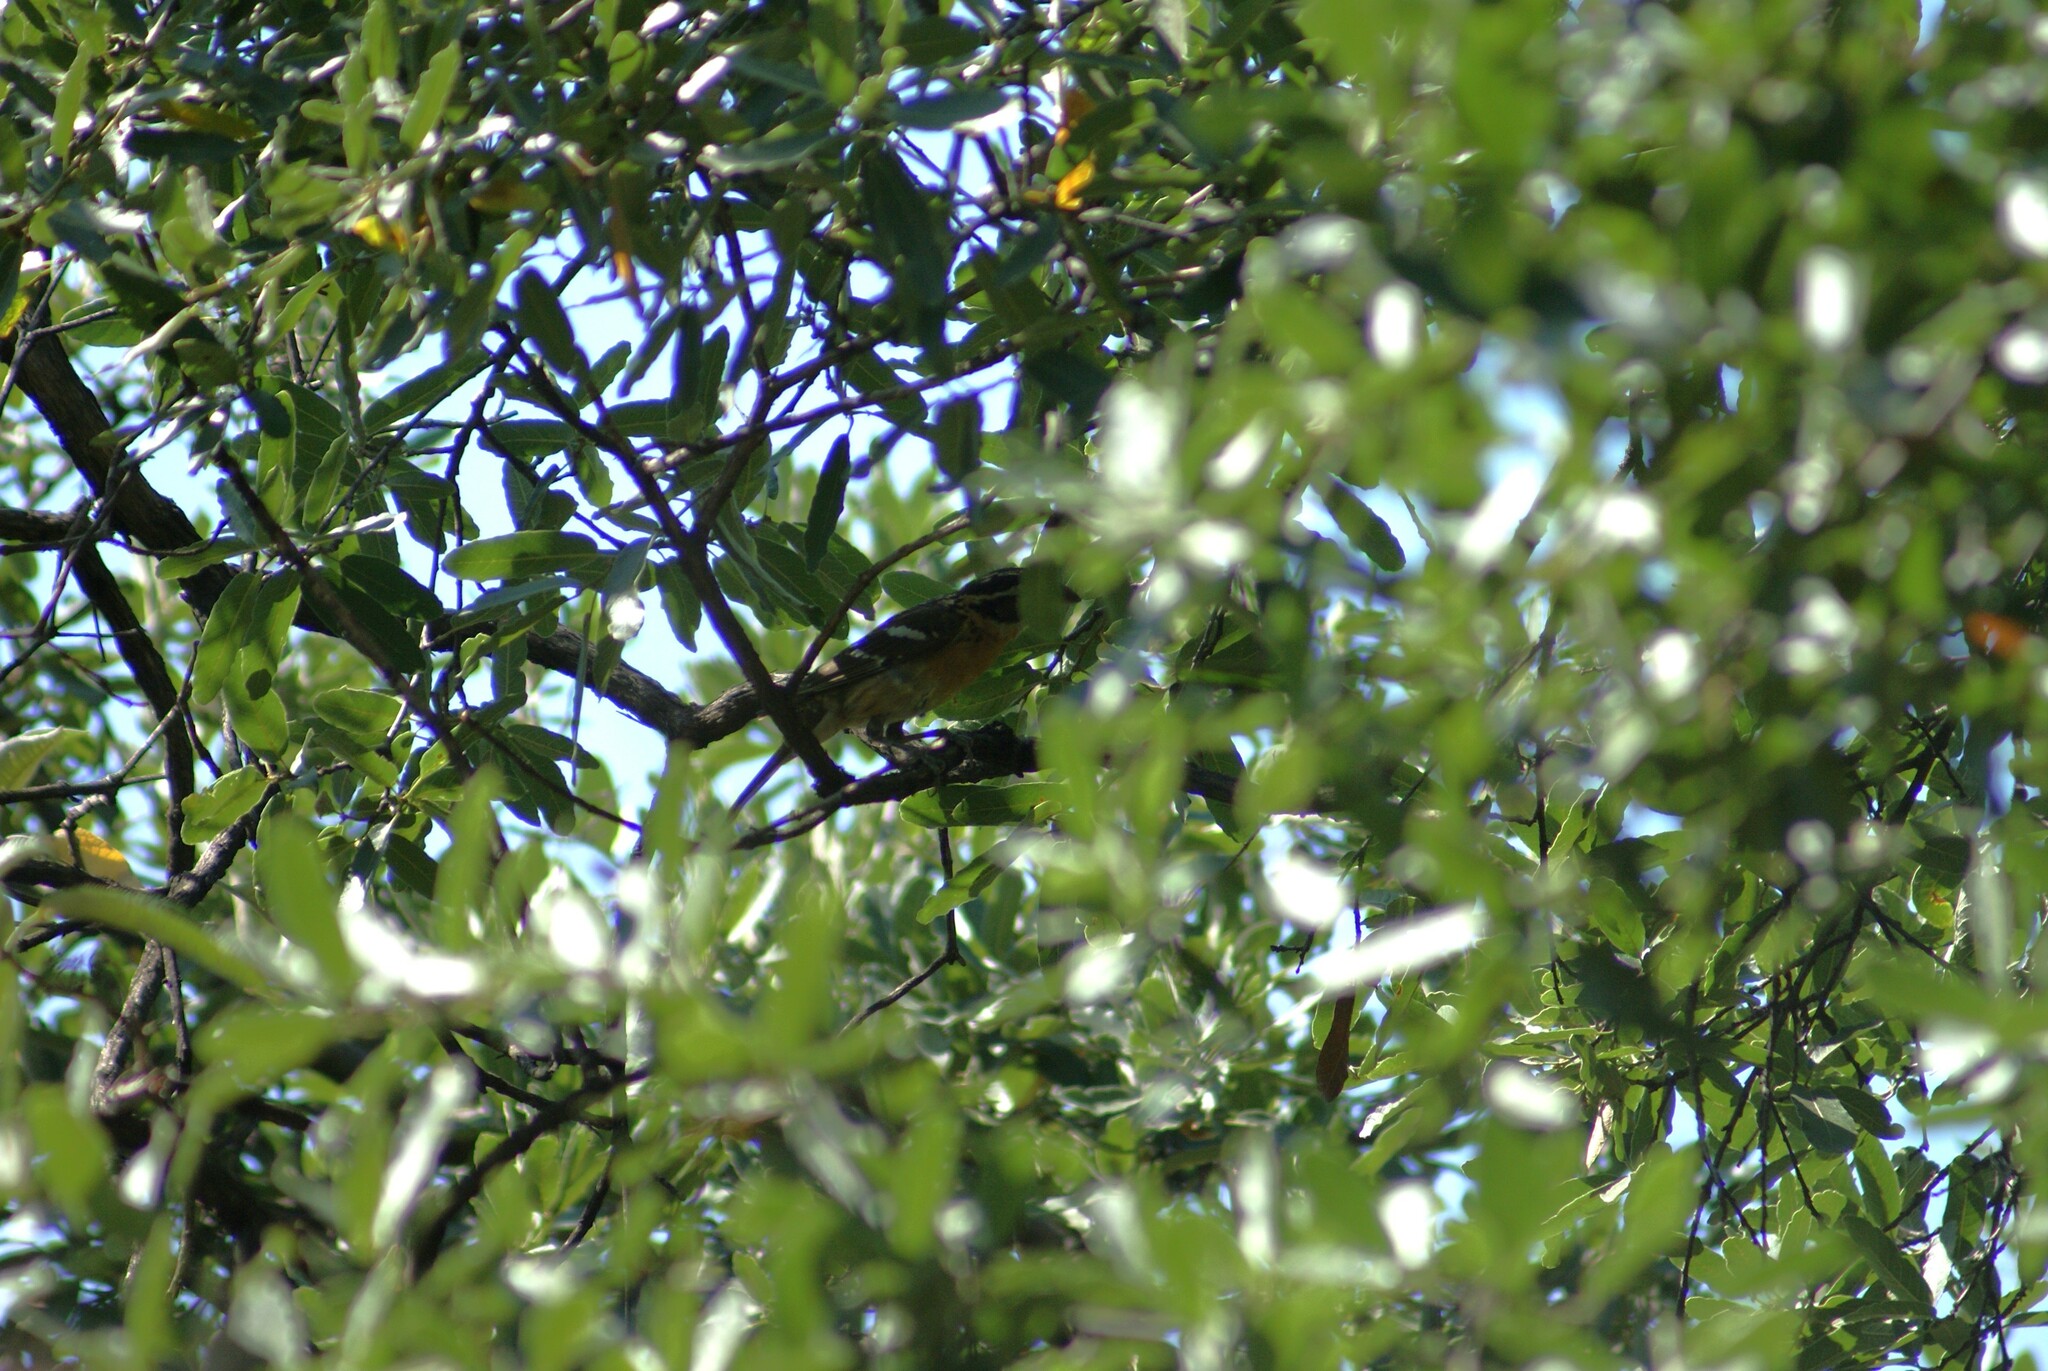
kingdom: Animalia
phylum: Chordata
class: Aves
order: Passeriformes
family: Cardinalidae
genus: Pheucticus
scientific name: Pheucticus melanocephalus
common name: Black-headed grosbeak
